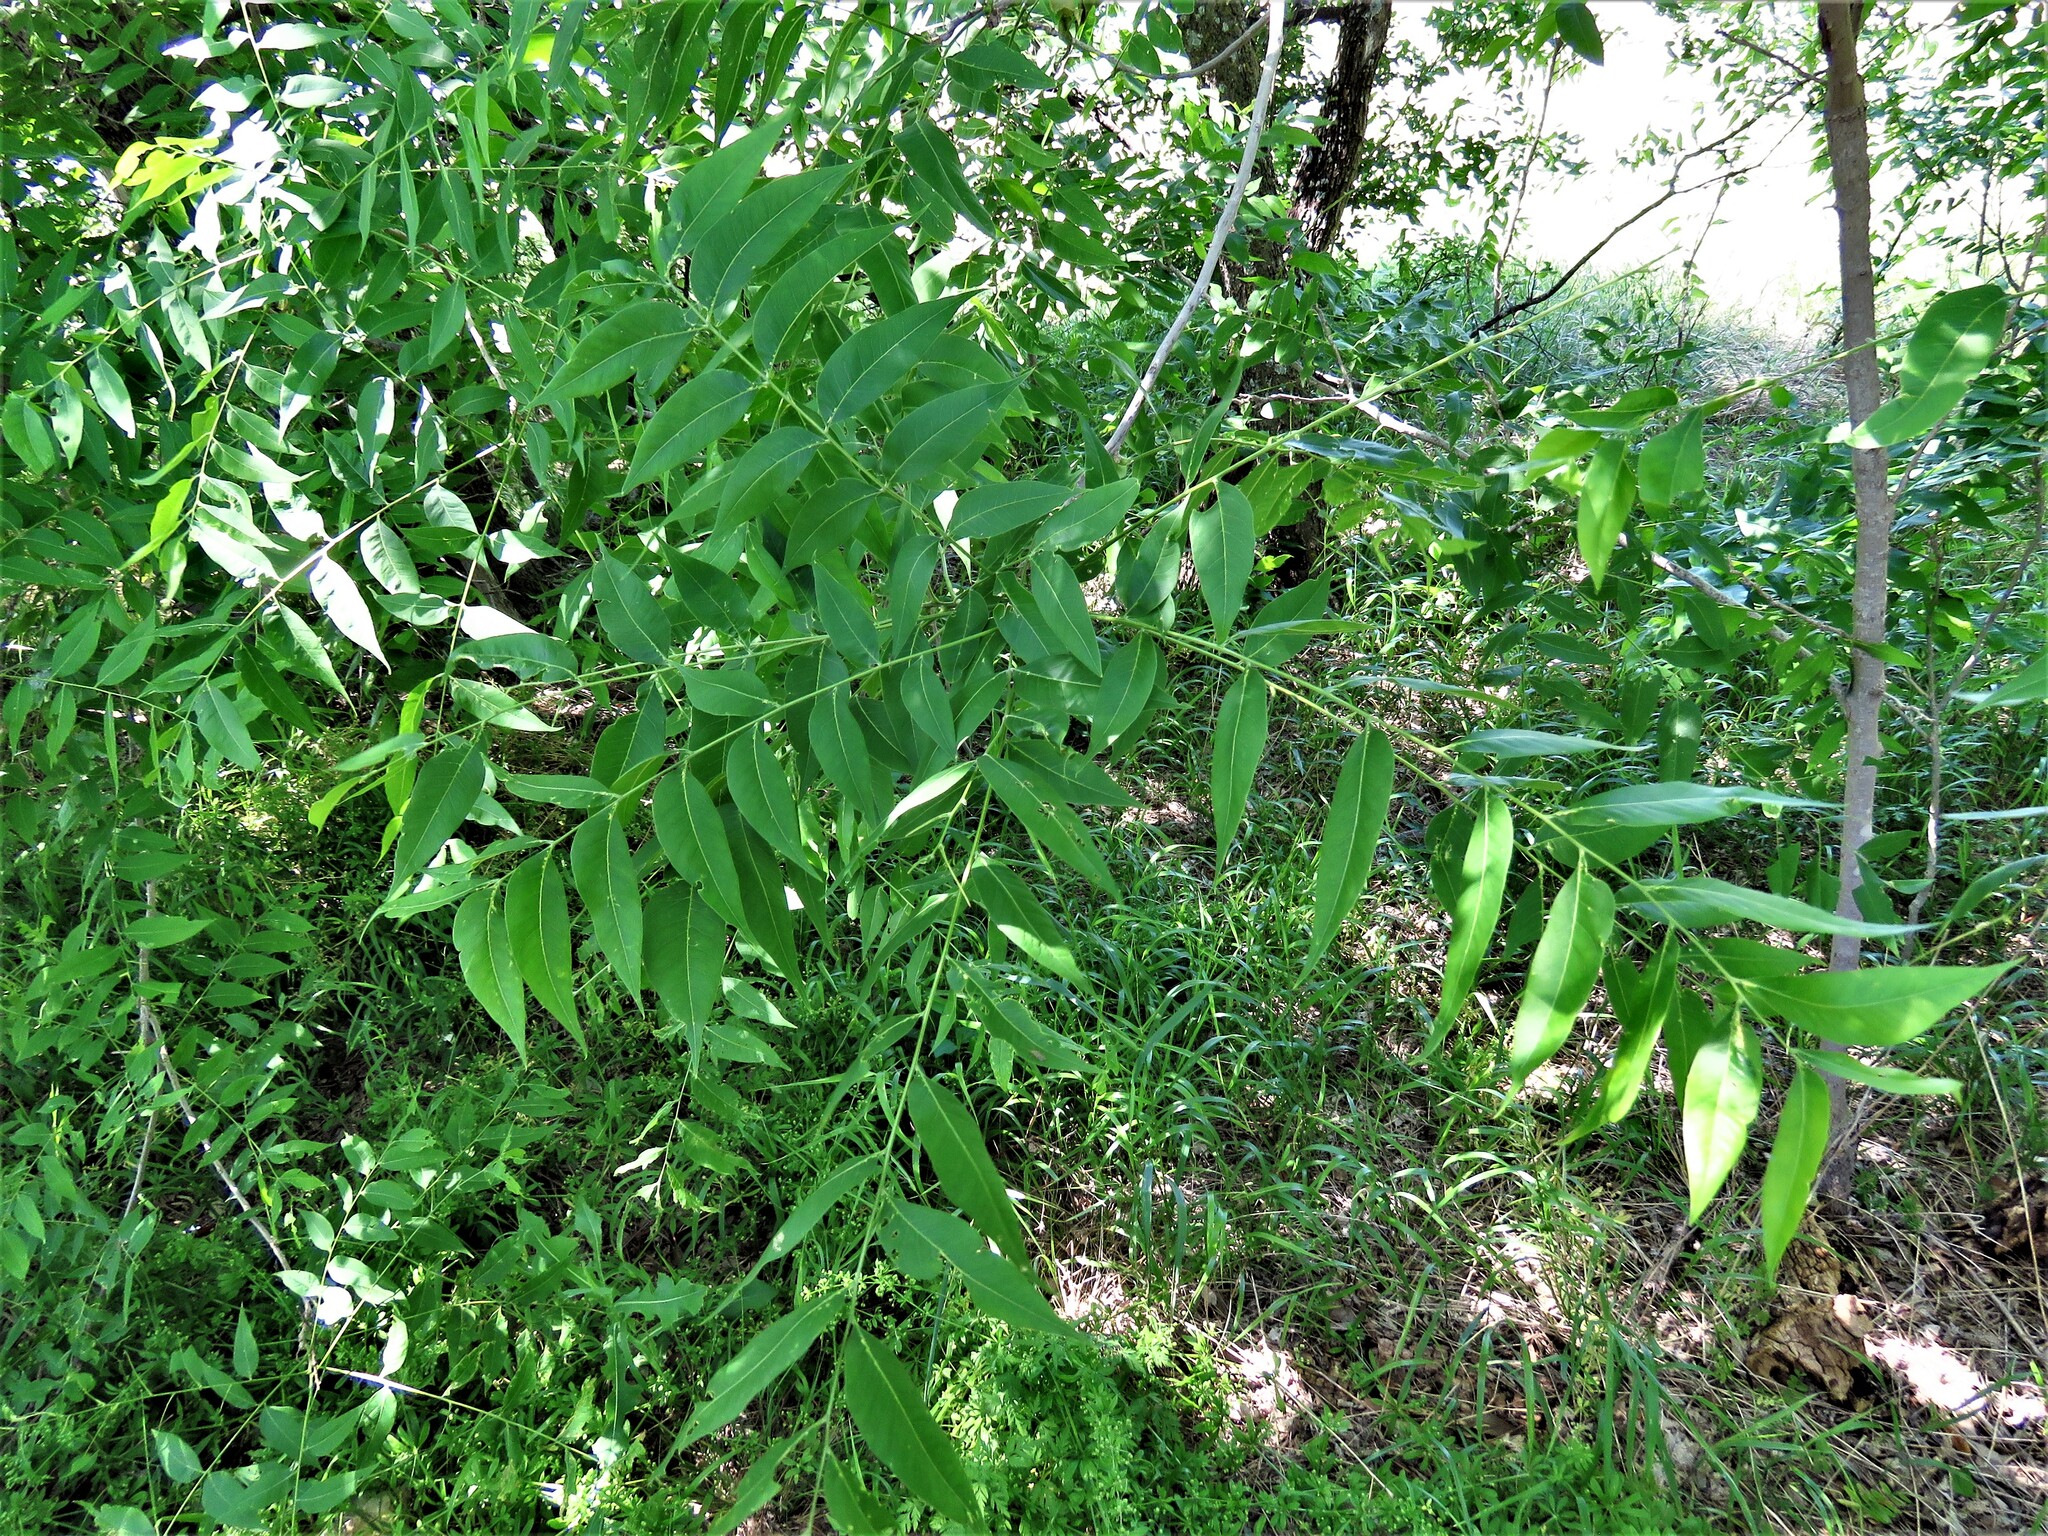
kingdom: Plantae
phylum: Tracheophyta
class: Magnoliopsida
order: Sapindales
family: Sapindaceae
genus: Sapindus
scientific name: Sapindus drummondii
